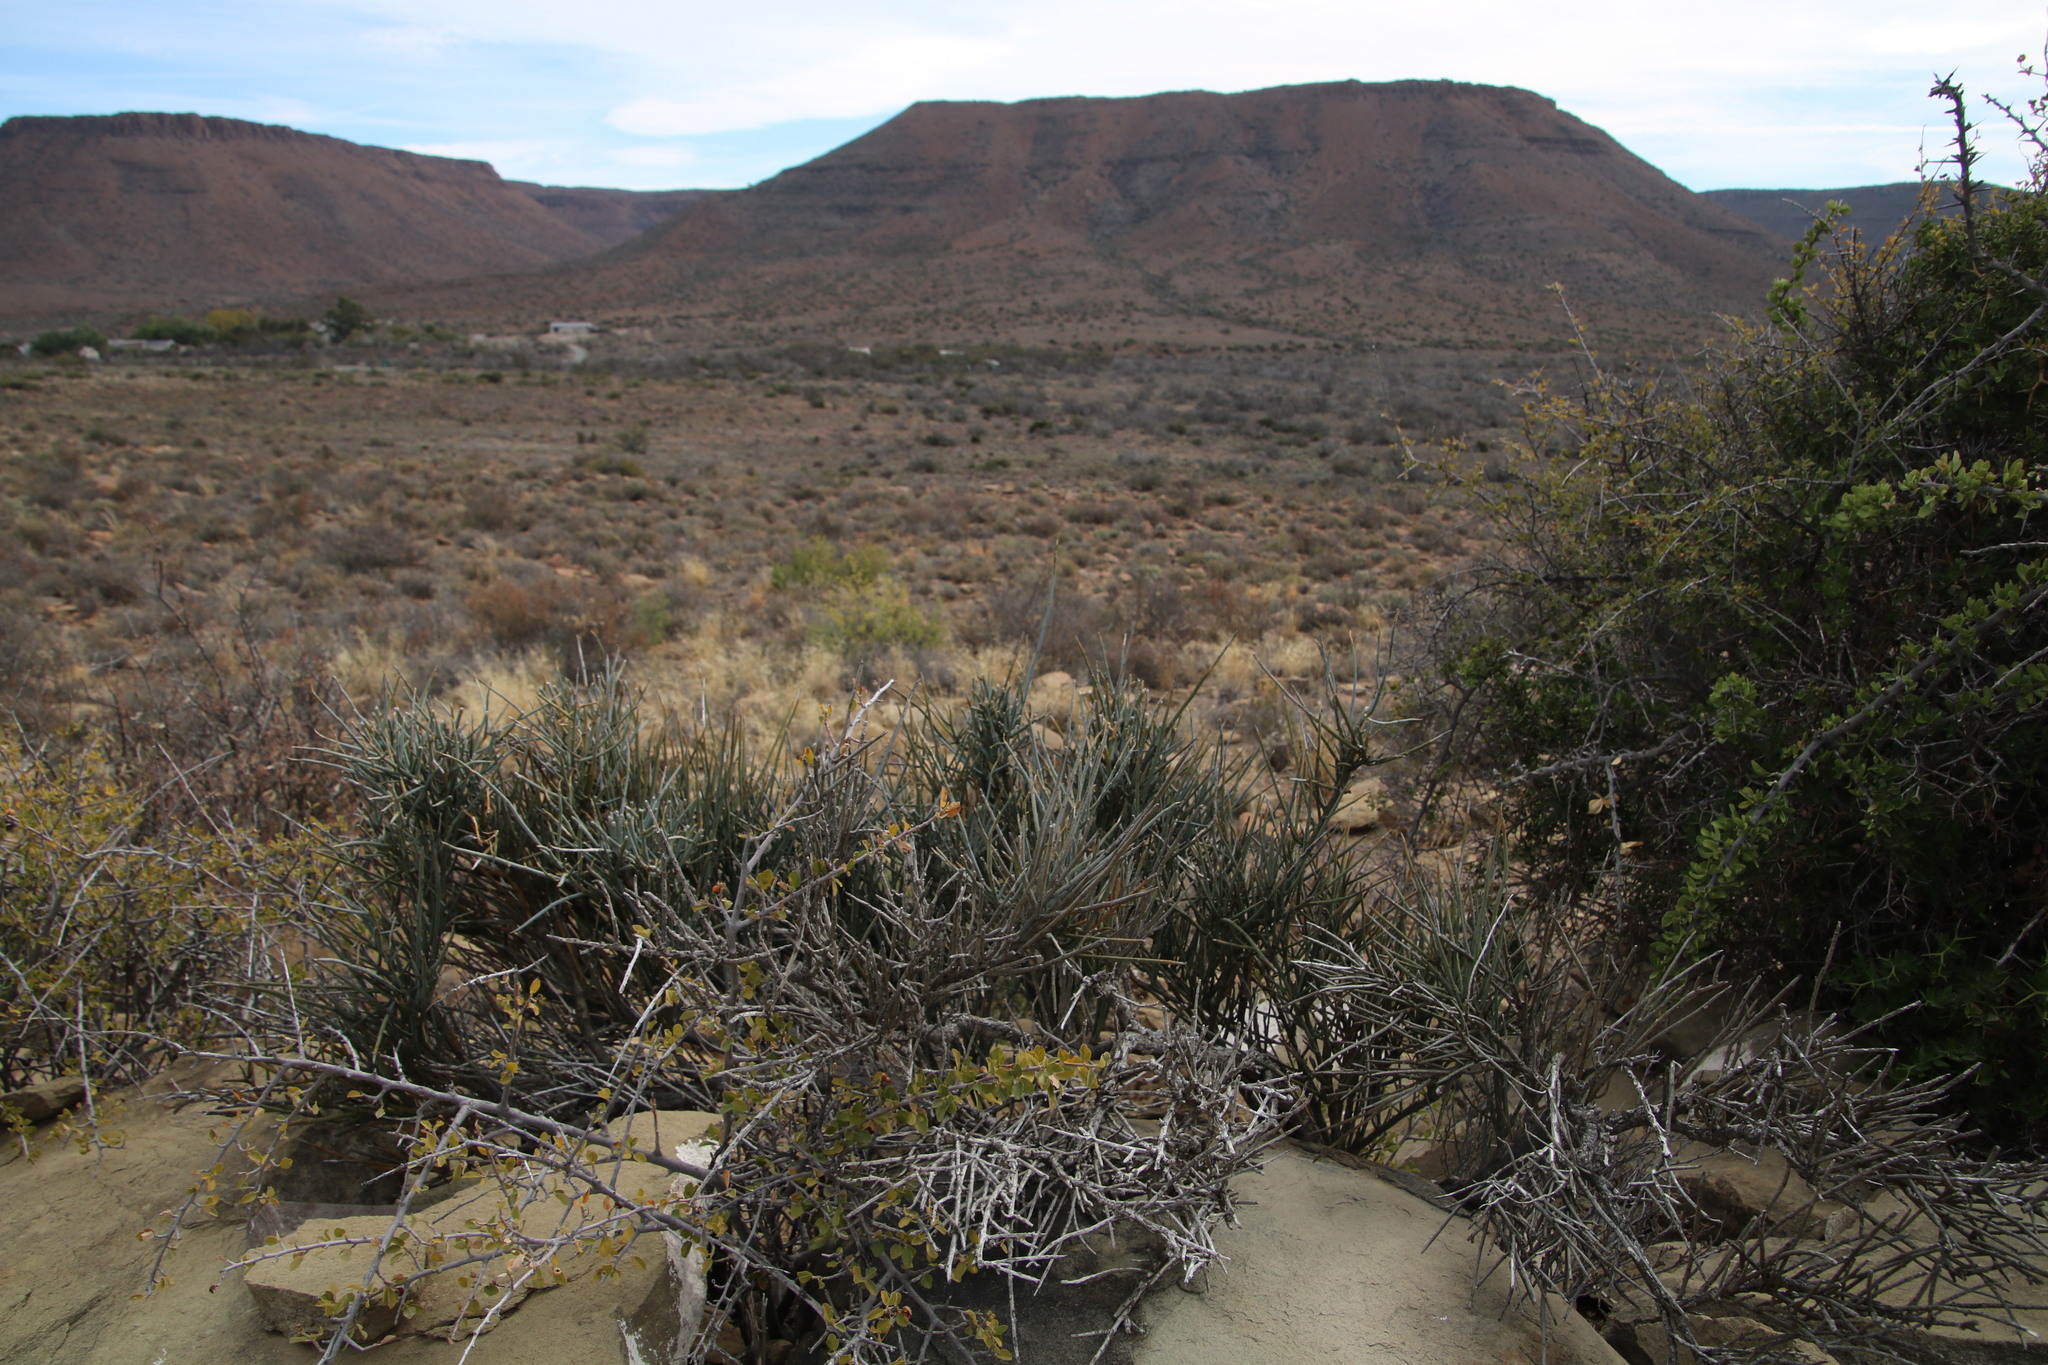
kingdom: Plantae
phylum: Tracheophyta
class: Magnoliopsida
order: Brassicales
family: Capparaceae
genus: Cadaba
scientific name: Cadaba aphylla
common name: Black storm
